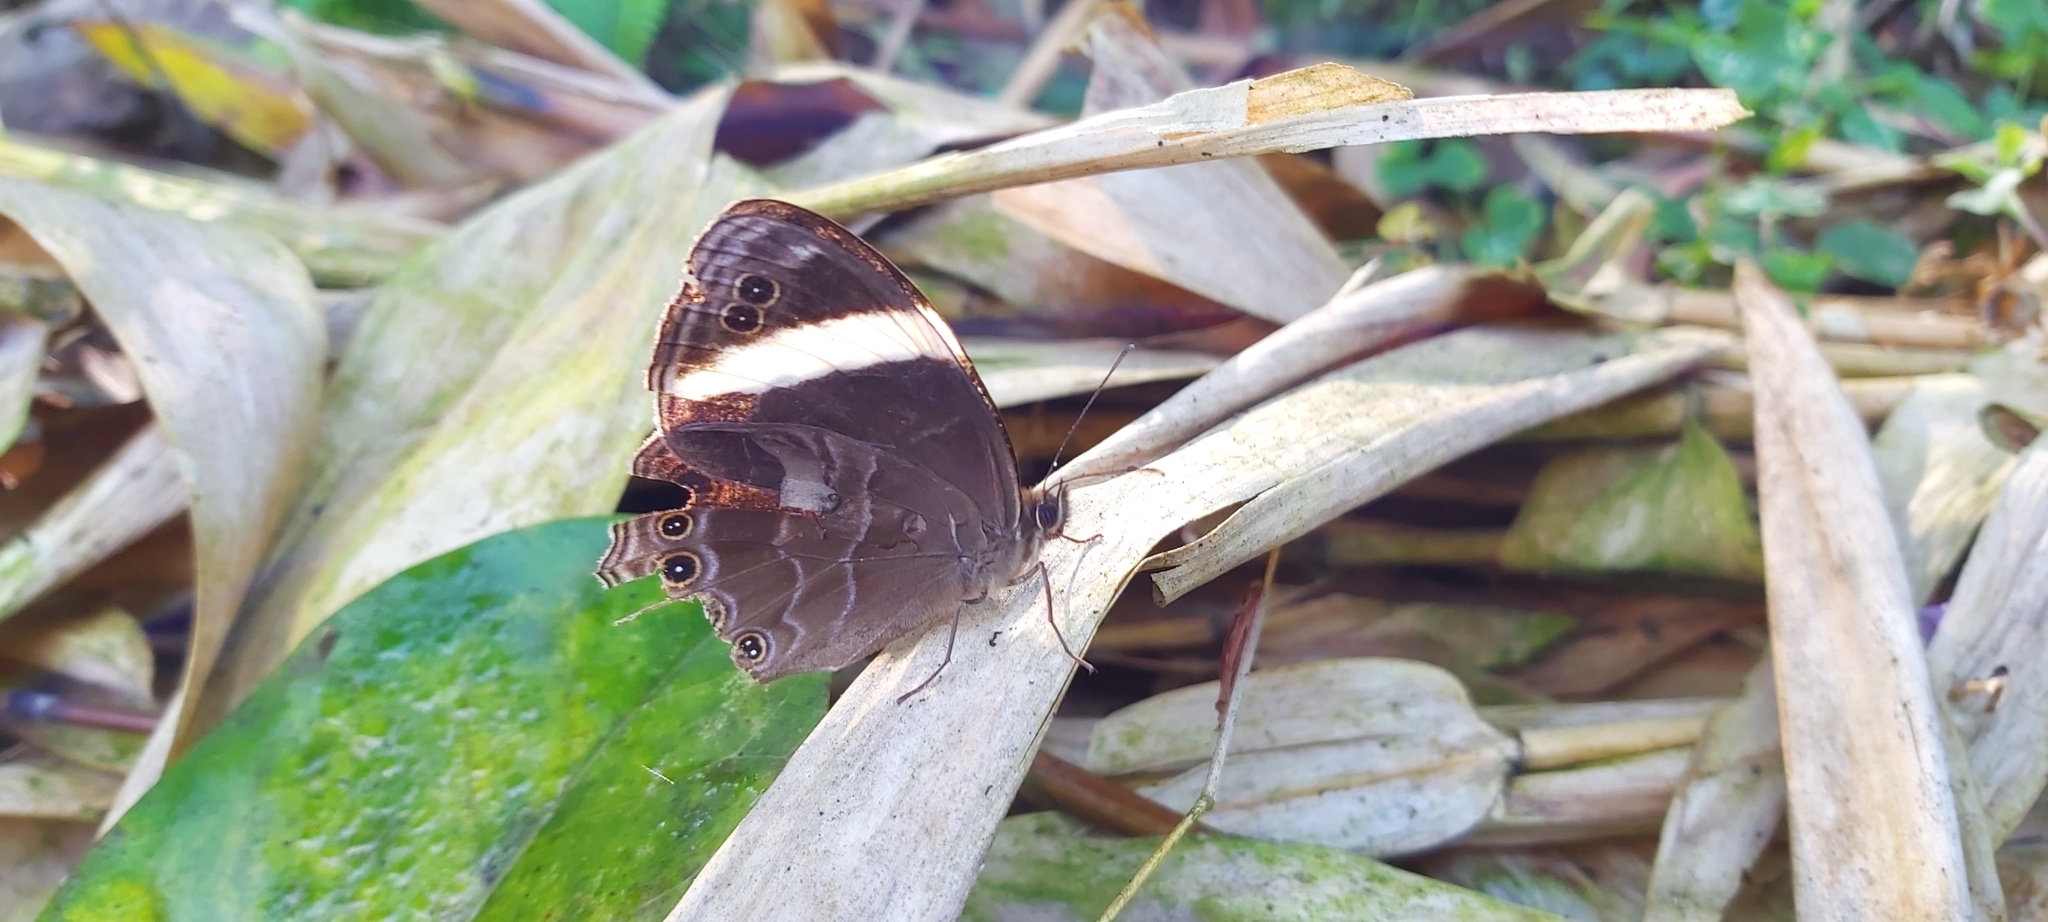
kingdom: Animalia
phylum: Arthropoda
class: Insecta
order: Lepidoptera
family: Nymphalidae
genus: Lethe
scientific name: Lethe verma
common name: Straight-banded treebrown
